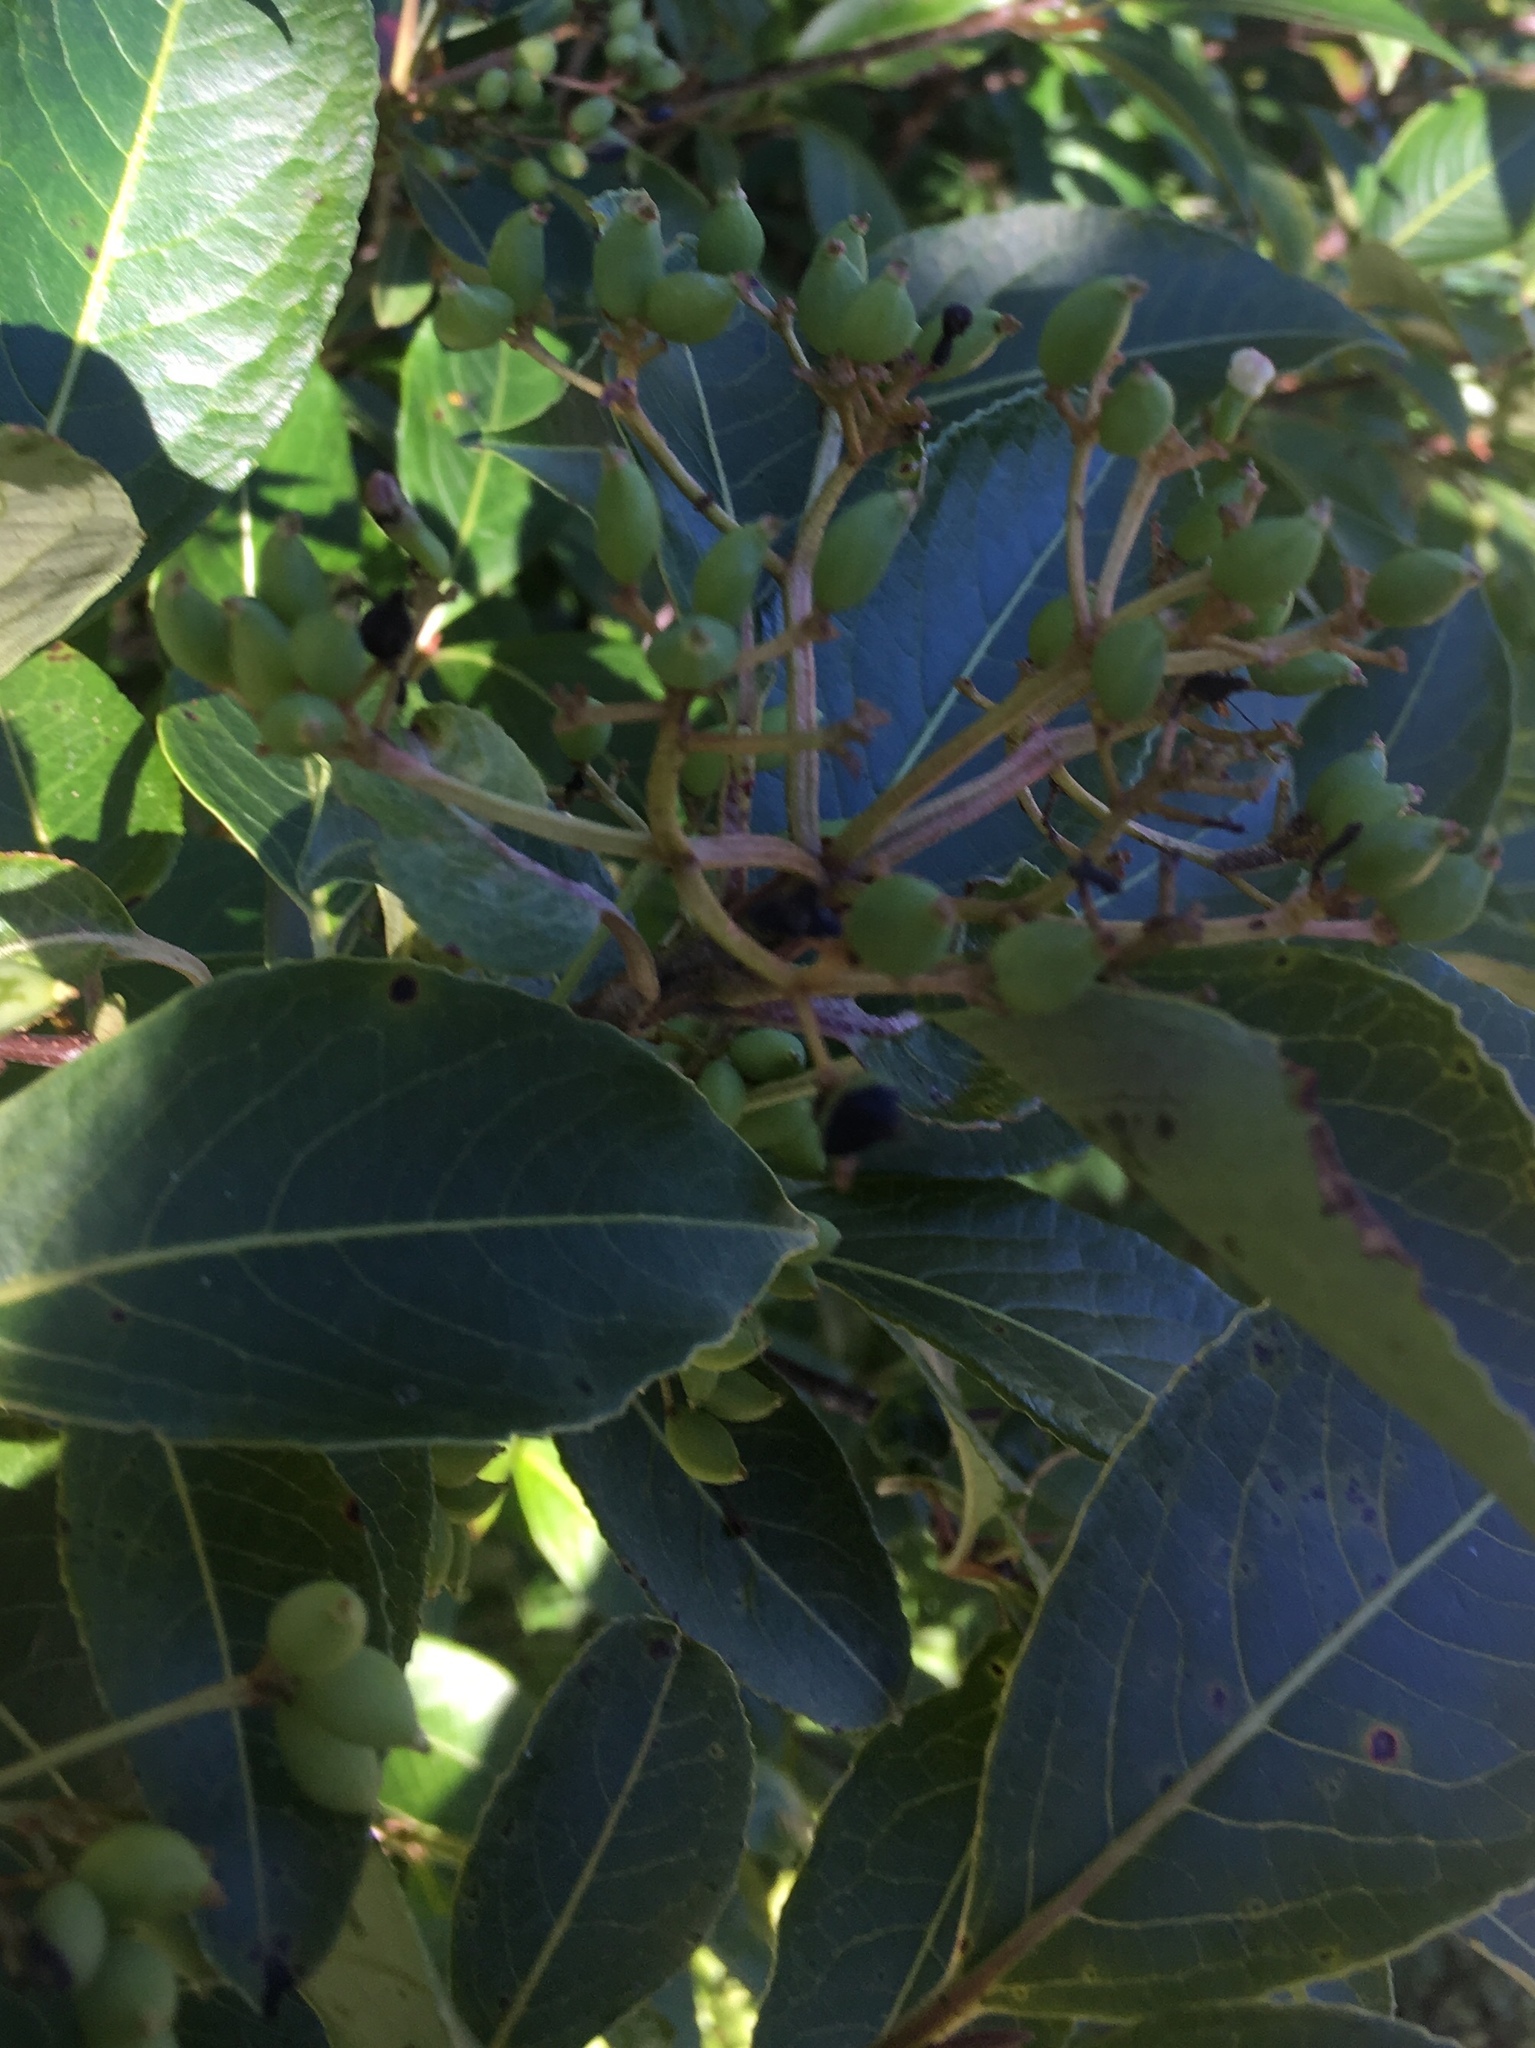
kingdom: Plantae
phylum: Tracheophyta
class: Magnoliopsida
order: Dipsacales
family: Viburnaceae
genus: Viburnum
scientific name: Viburnum cassinoides
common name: Swamp haw
